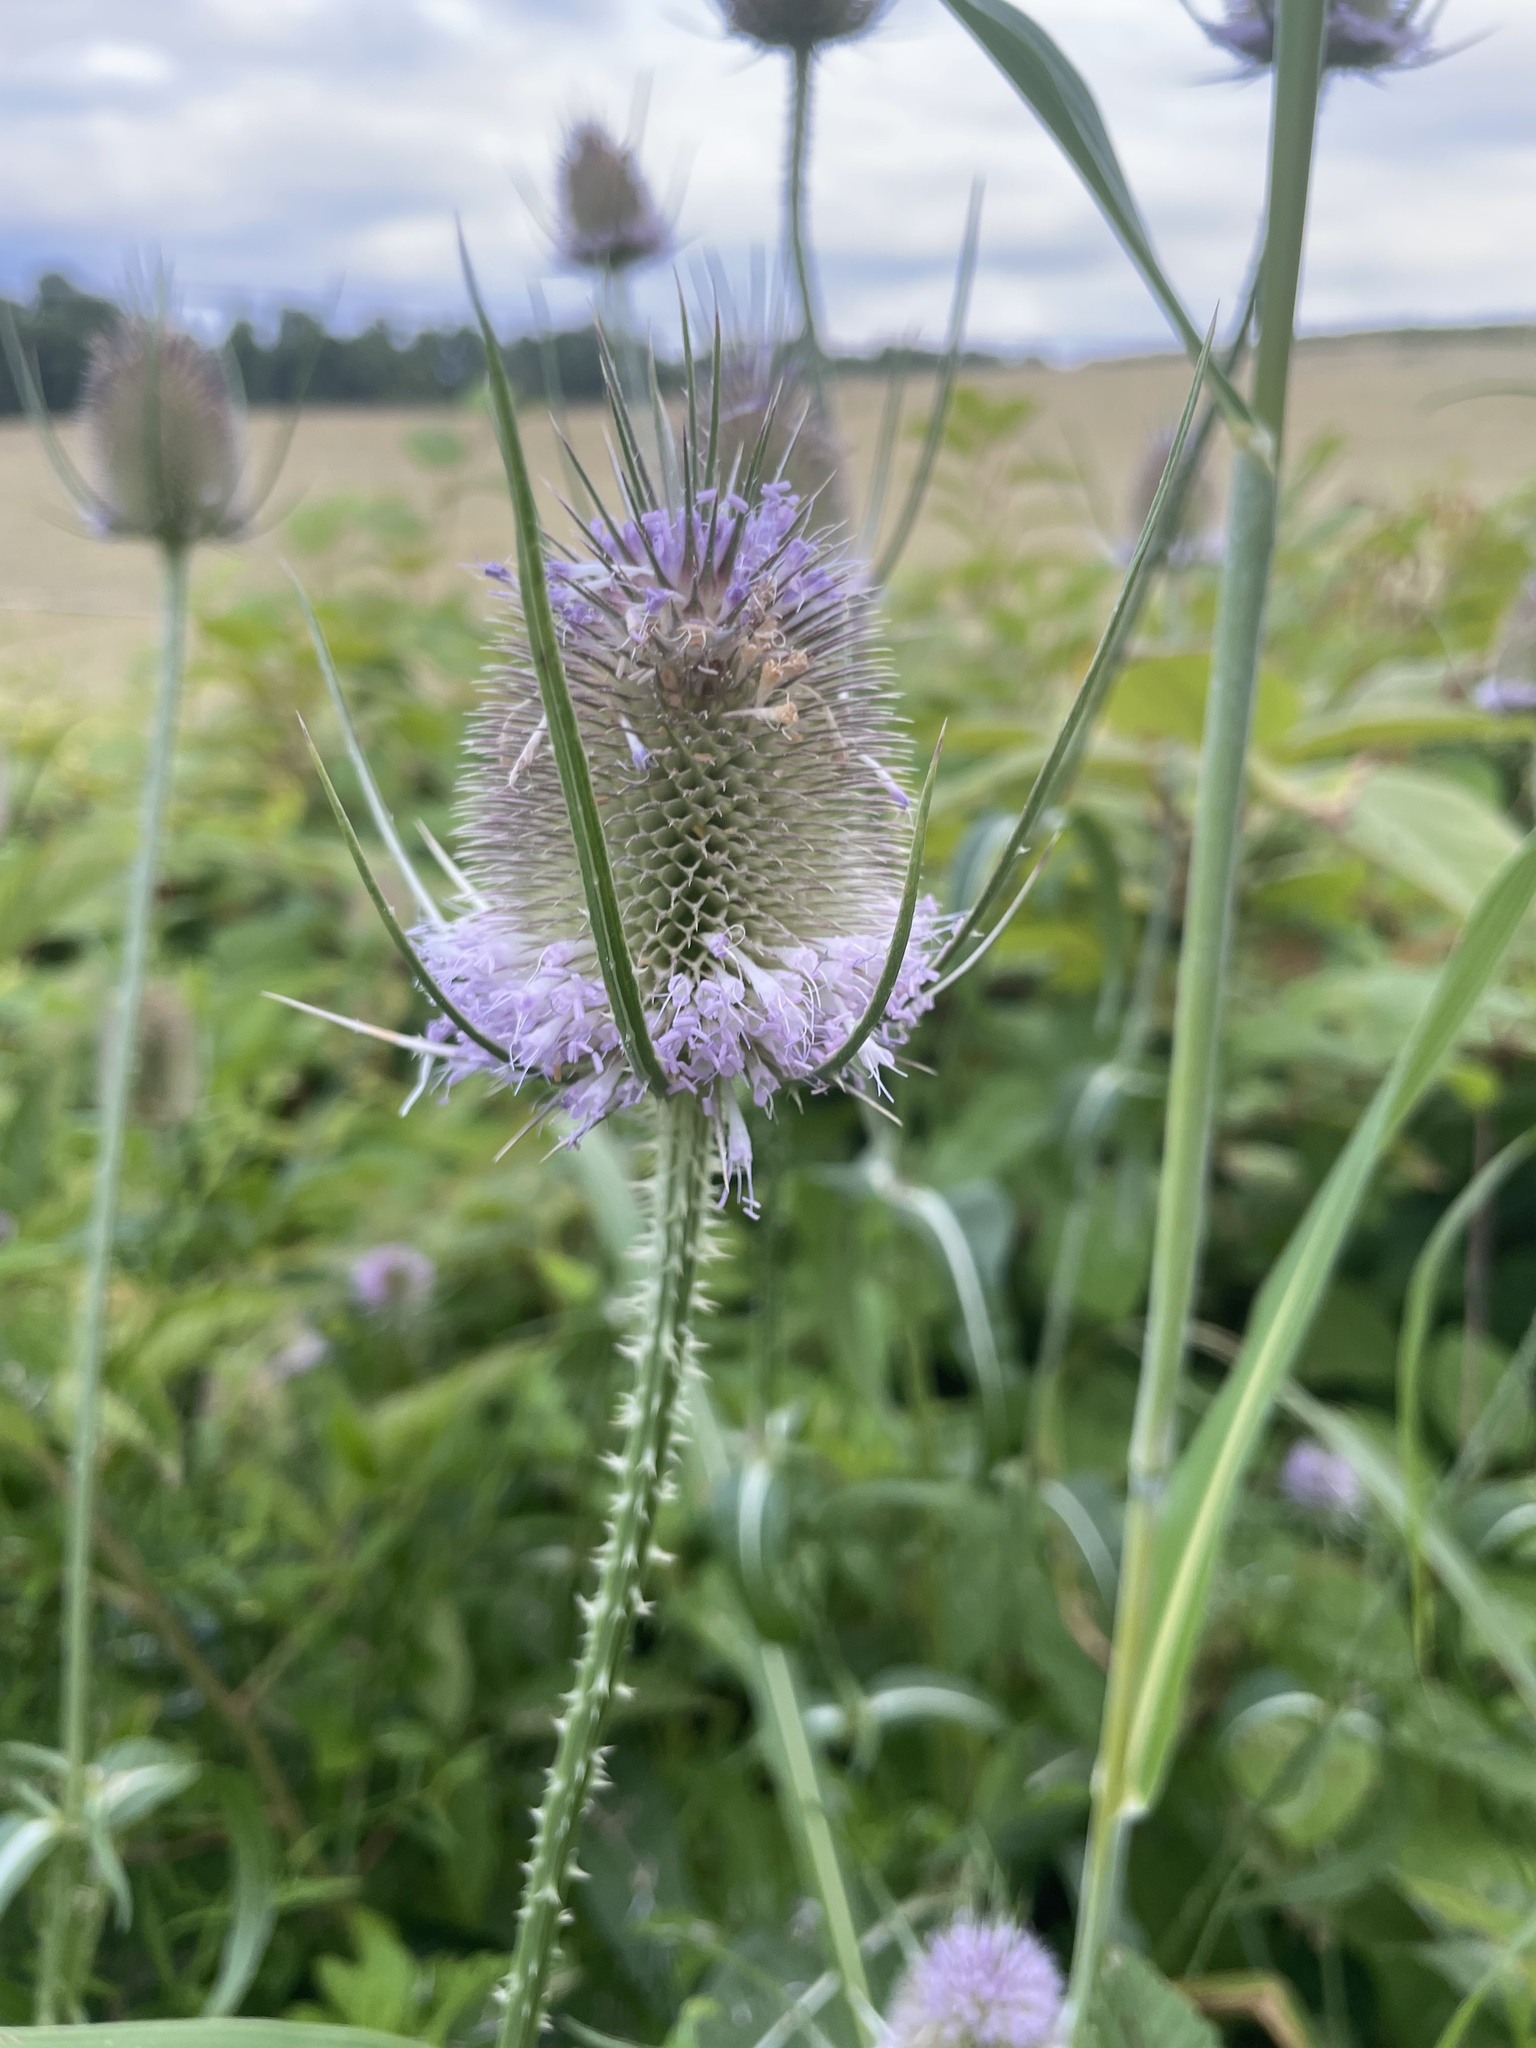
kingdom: Plantae
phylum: Tracheophyta
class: Magnoliopsida
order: Dipsacales
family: Caprifoliaceae
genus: Dipsacus
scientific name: Dipsacus fullonum
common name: Teasel
